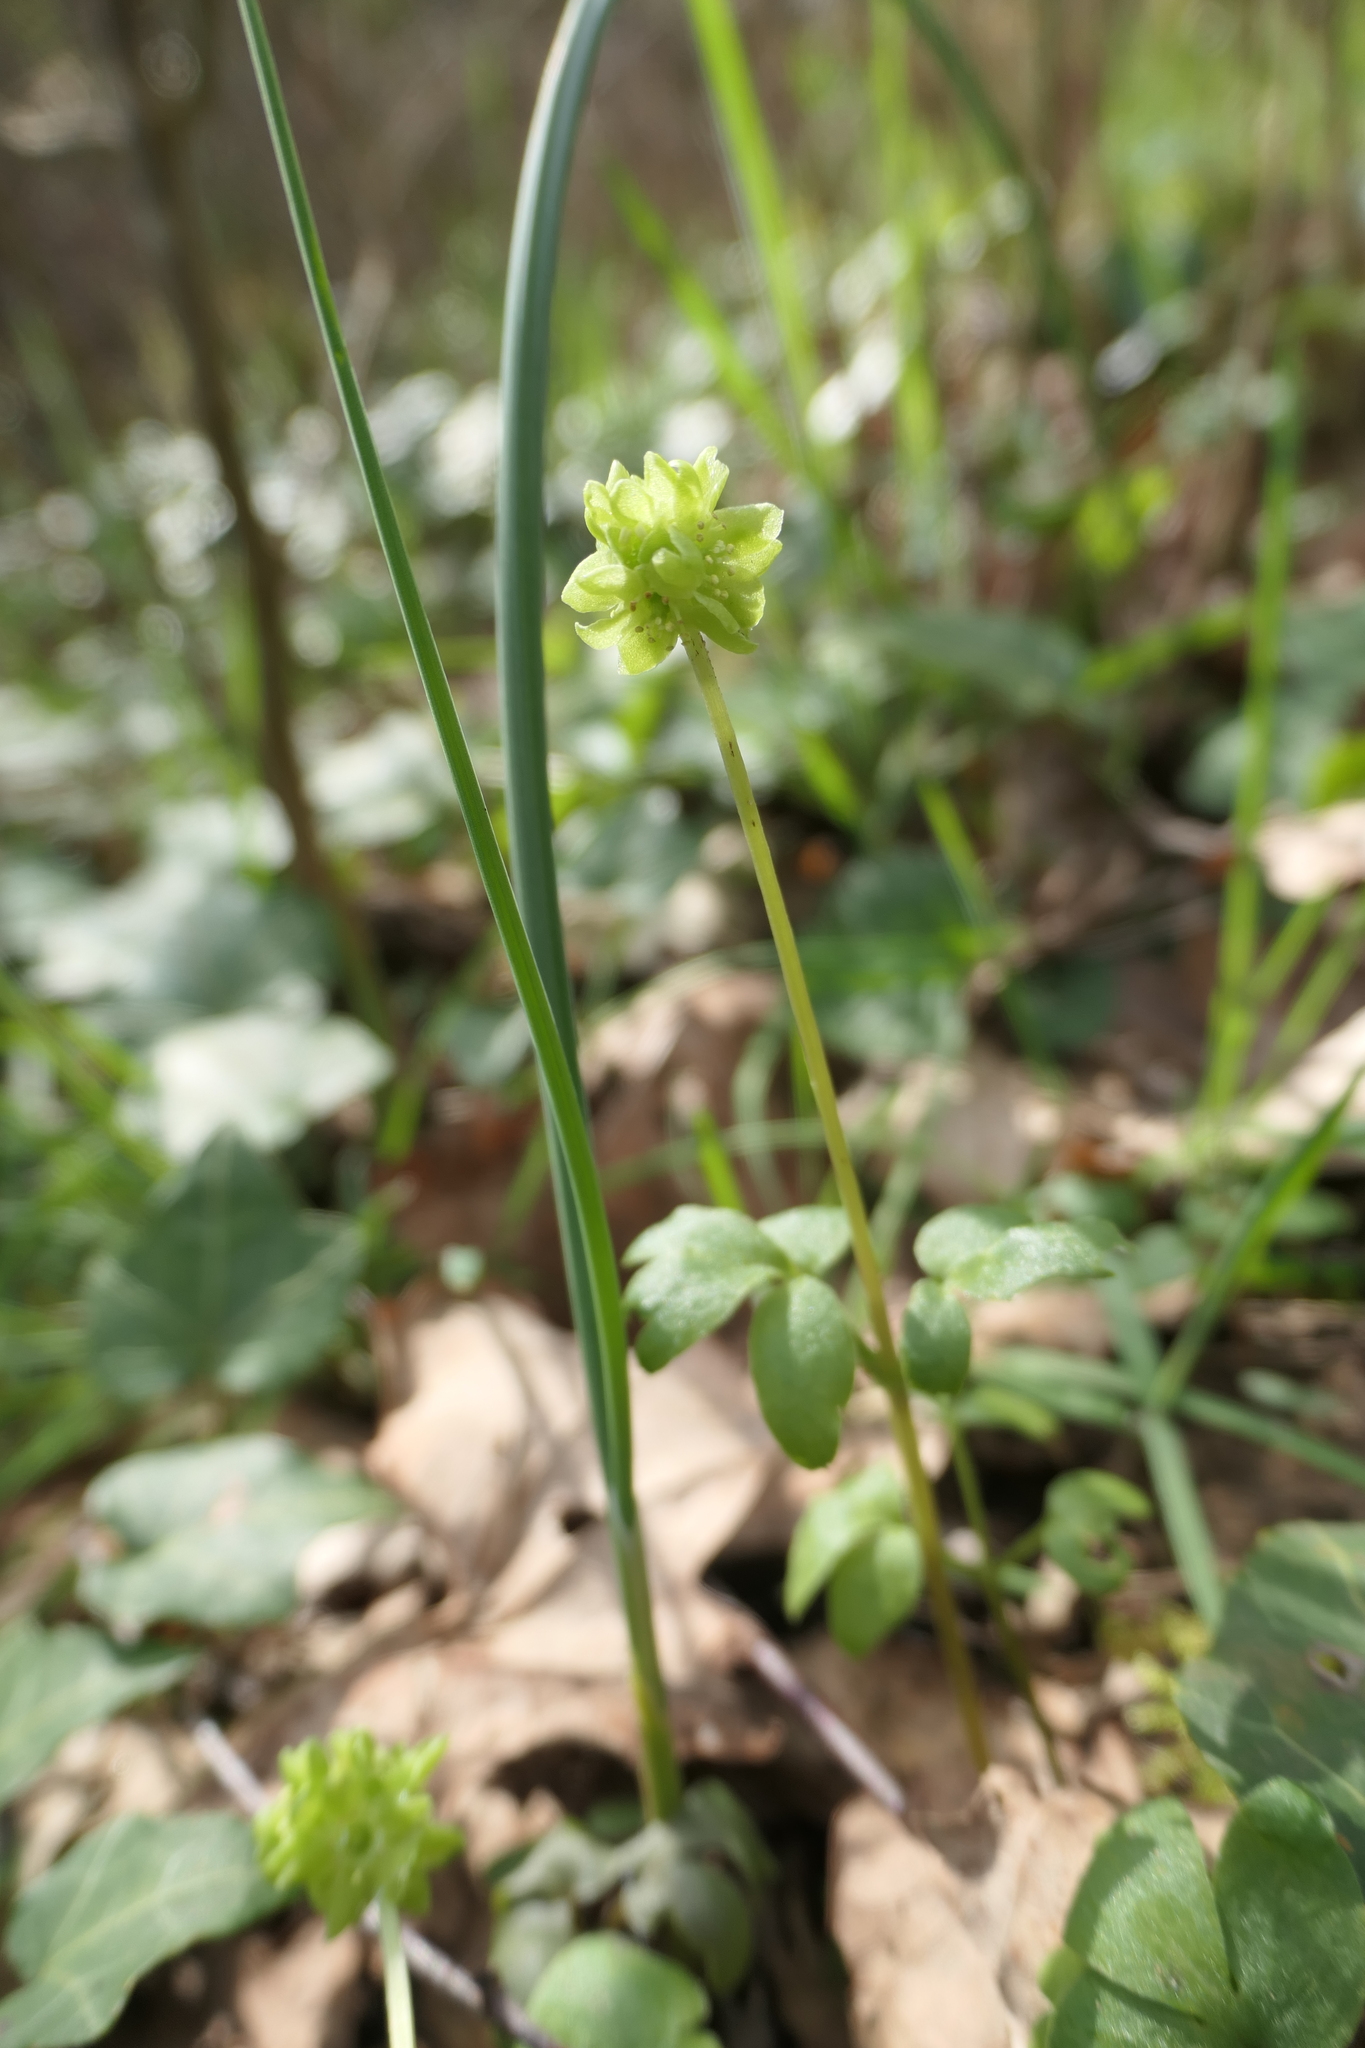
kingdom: Plantae
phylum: Tracheophyta
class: Magnoliopsida
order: Dipsacales
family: Viburnaceae
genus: Adoxa
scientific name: Adoxa moschatellina
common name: Moschatel
